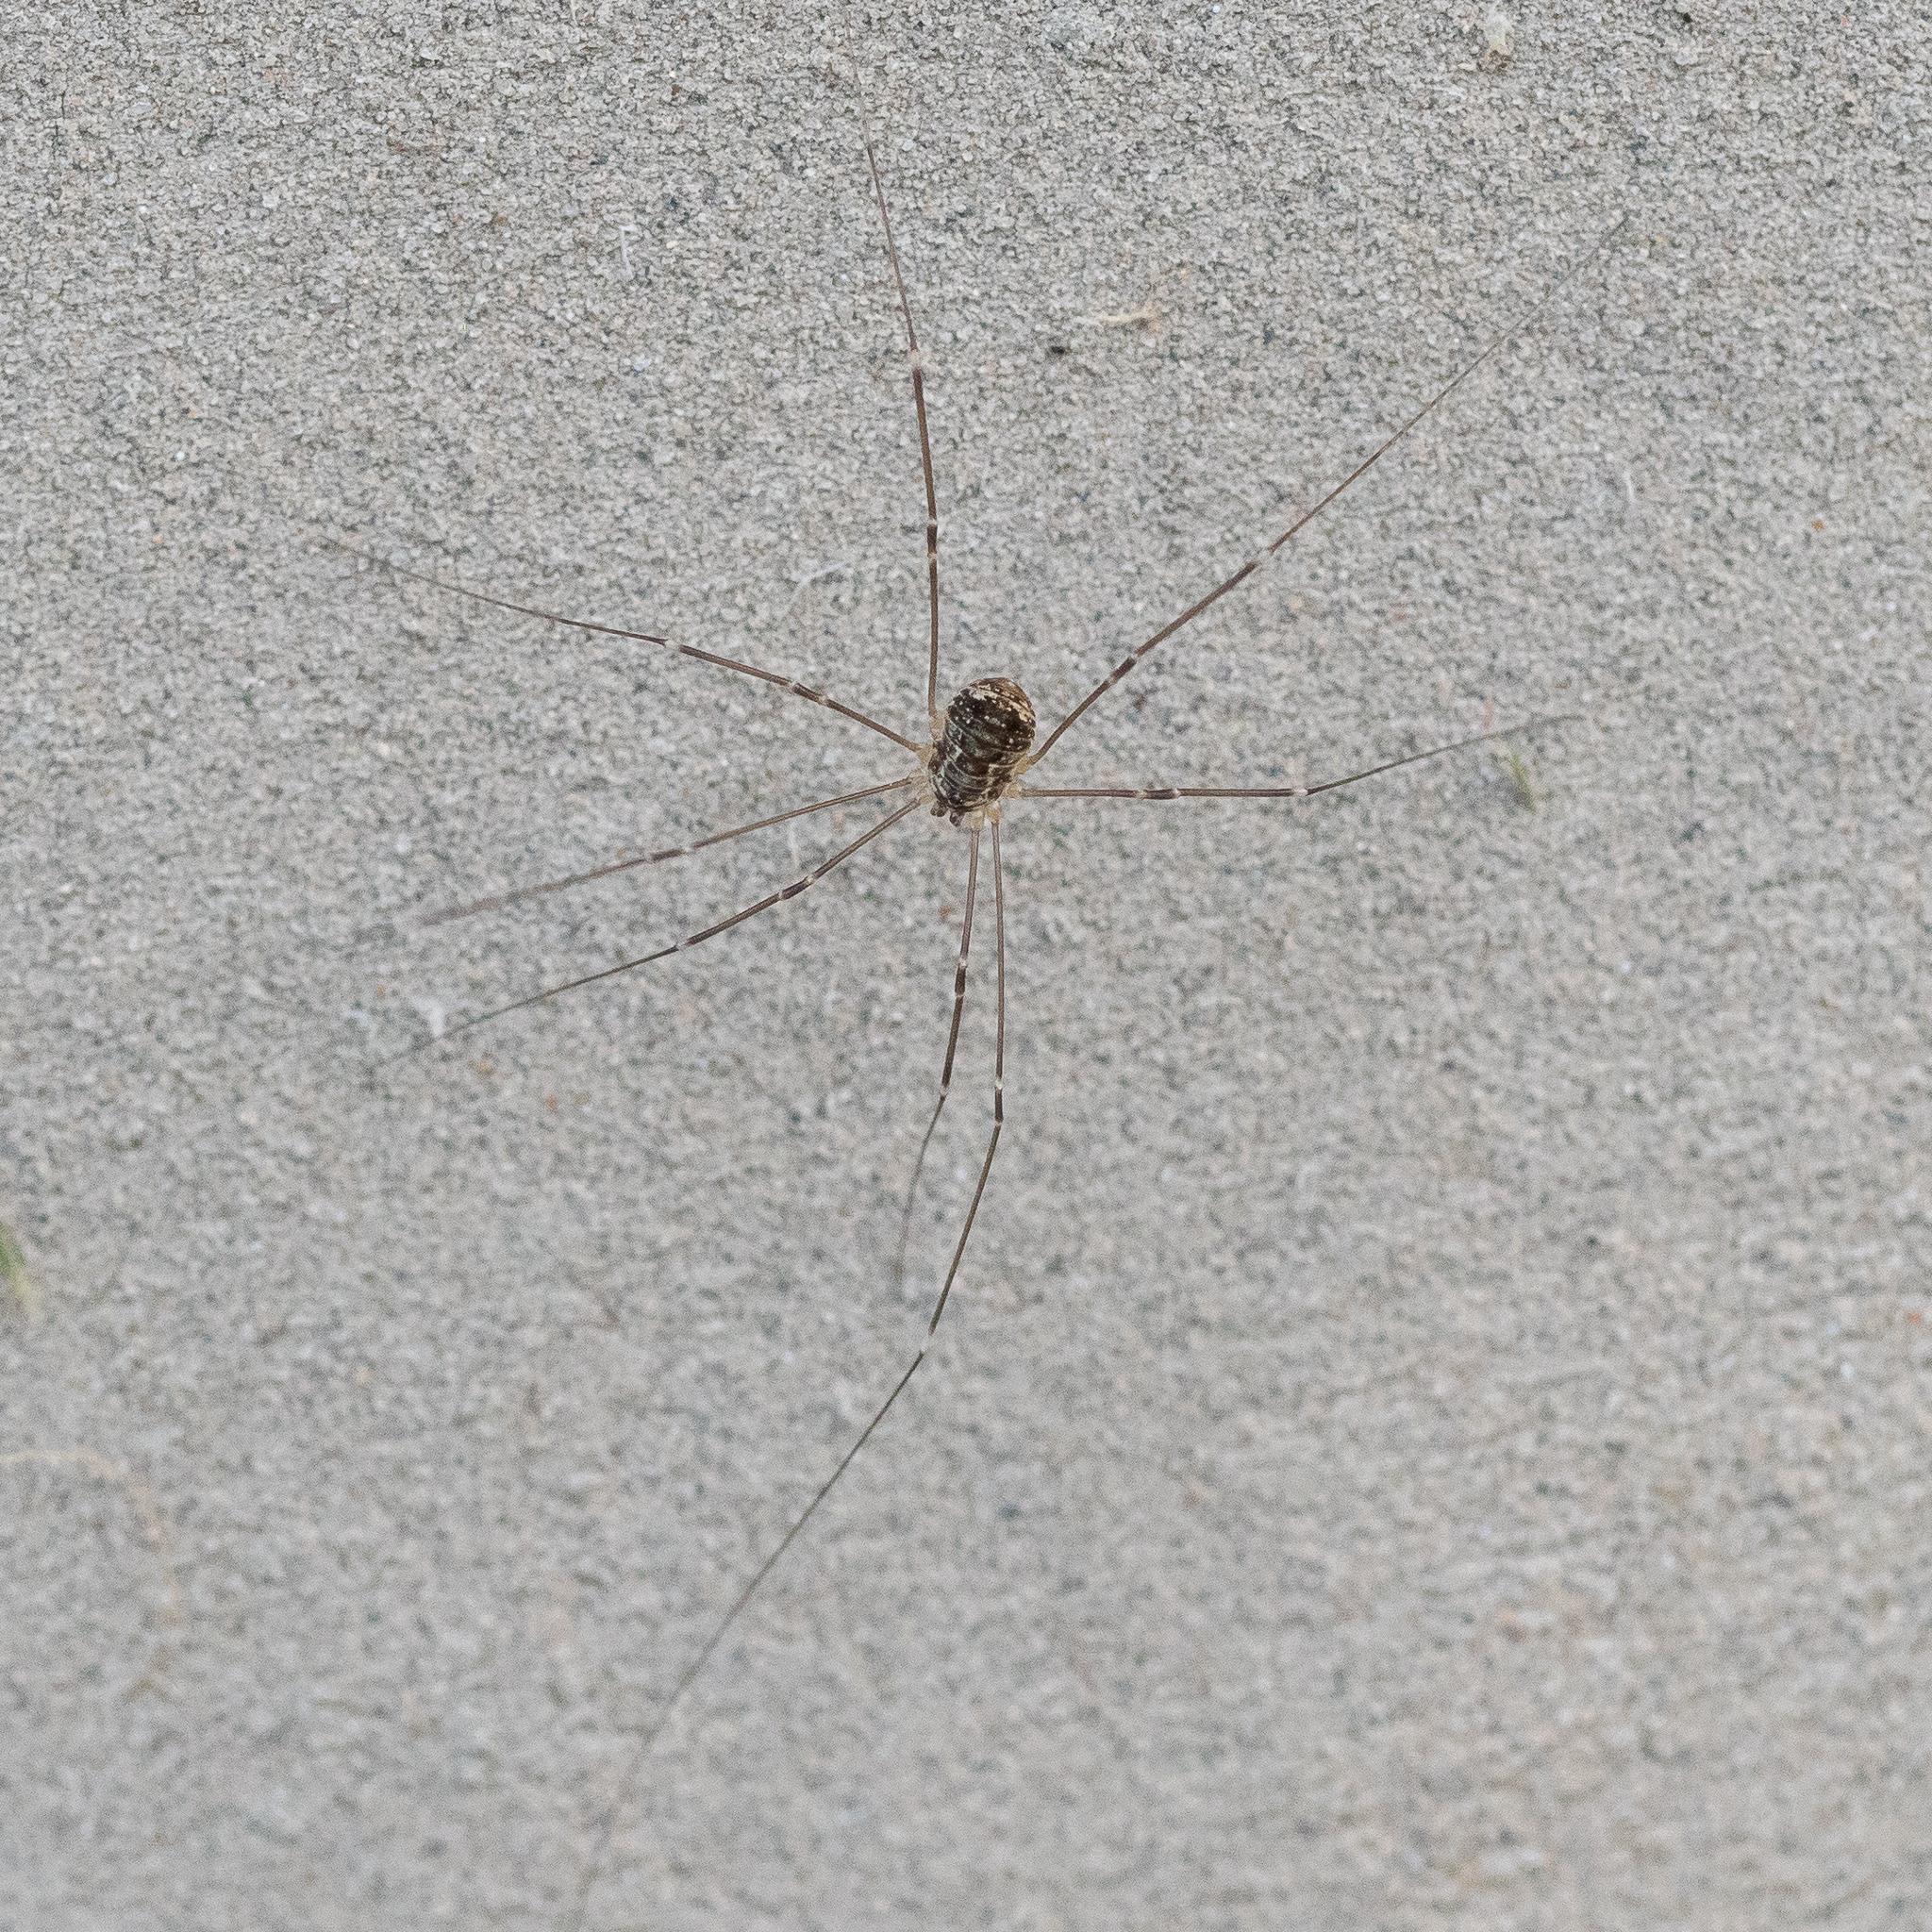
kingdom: Animalia
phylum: Arthropoda
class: Arachnida
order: Opiliones
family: Sclerosomatidae
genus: Leiobunum
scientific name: Leiobunum gracile
